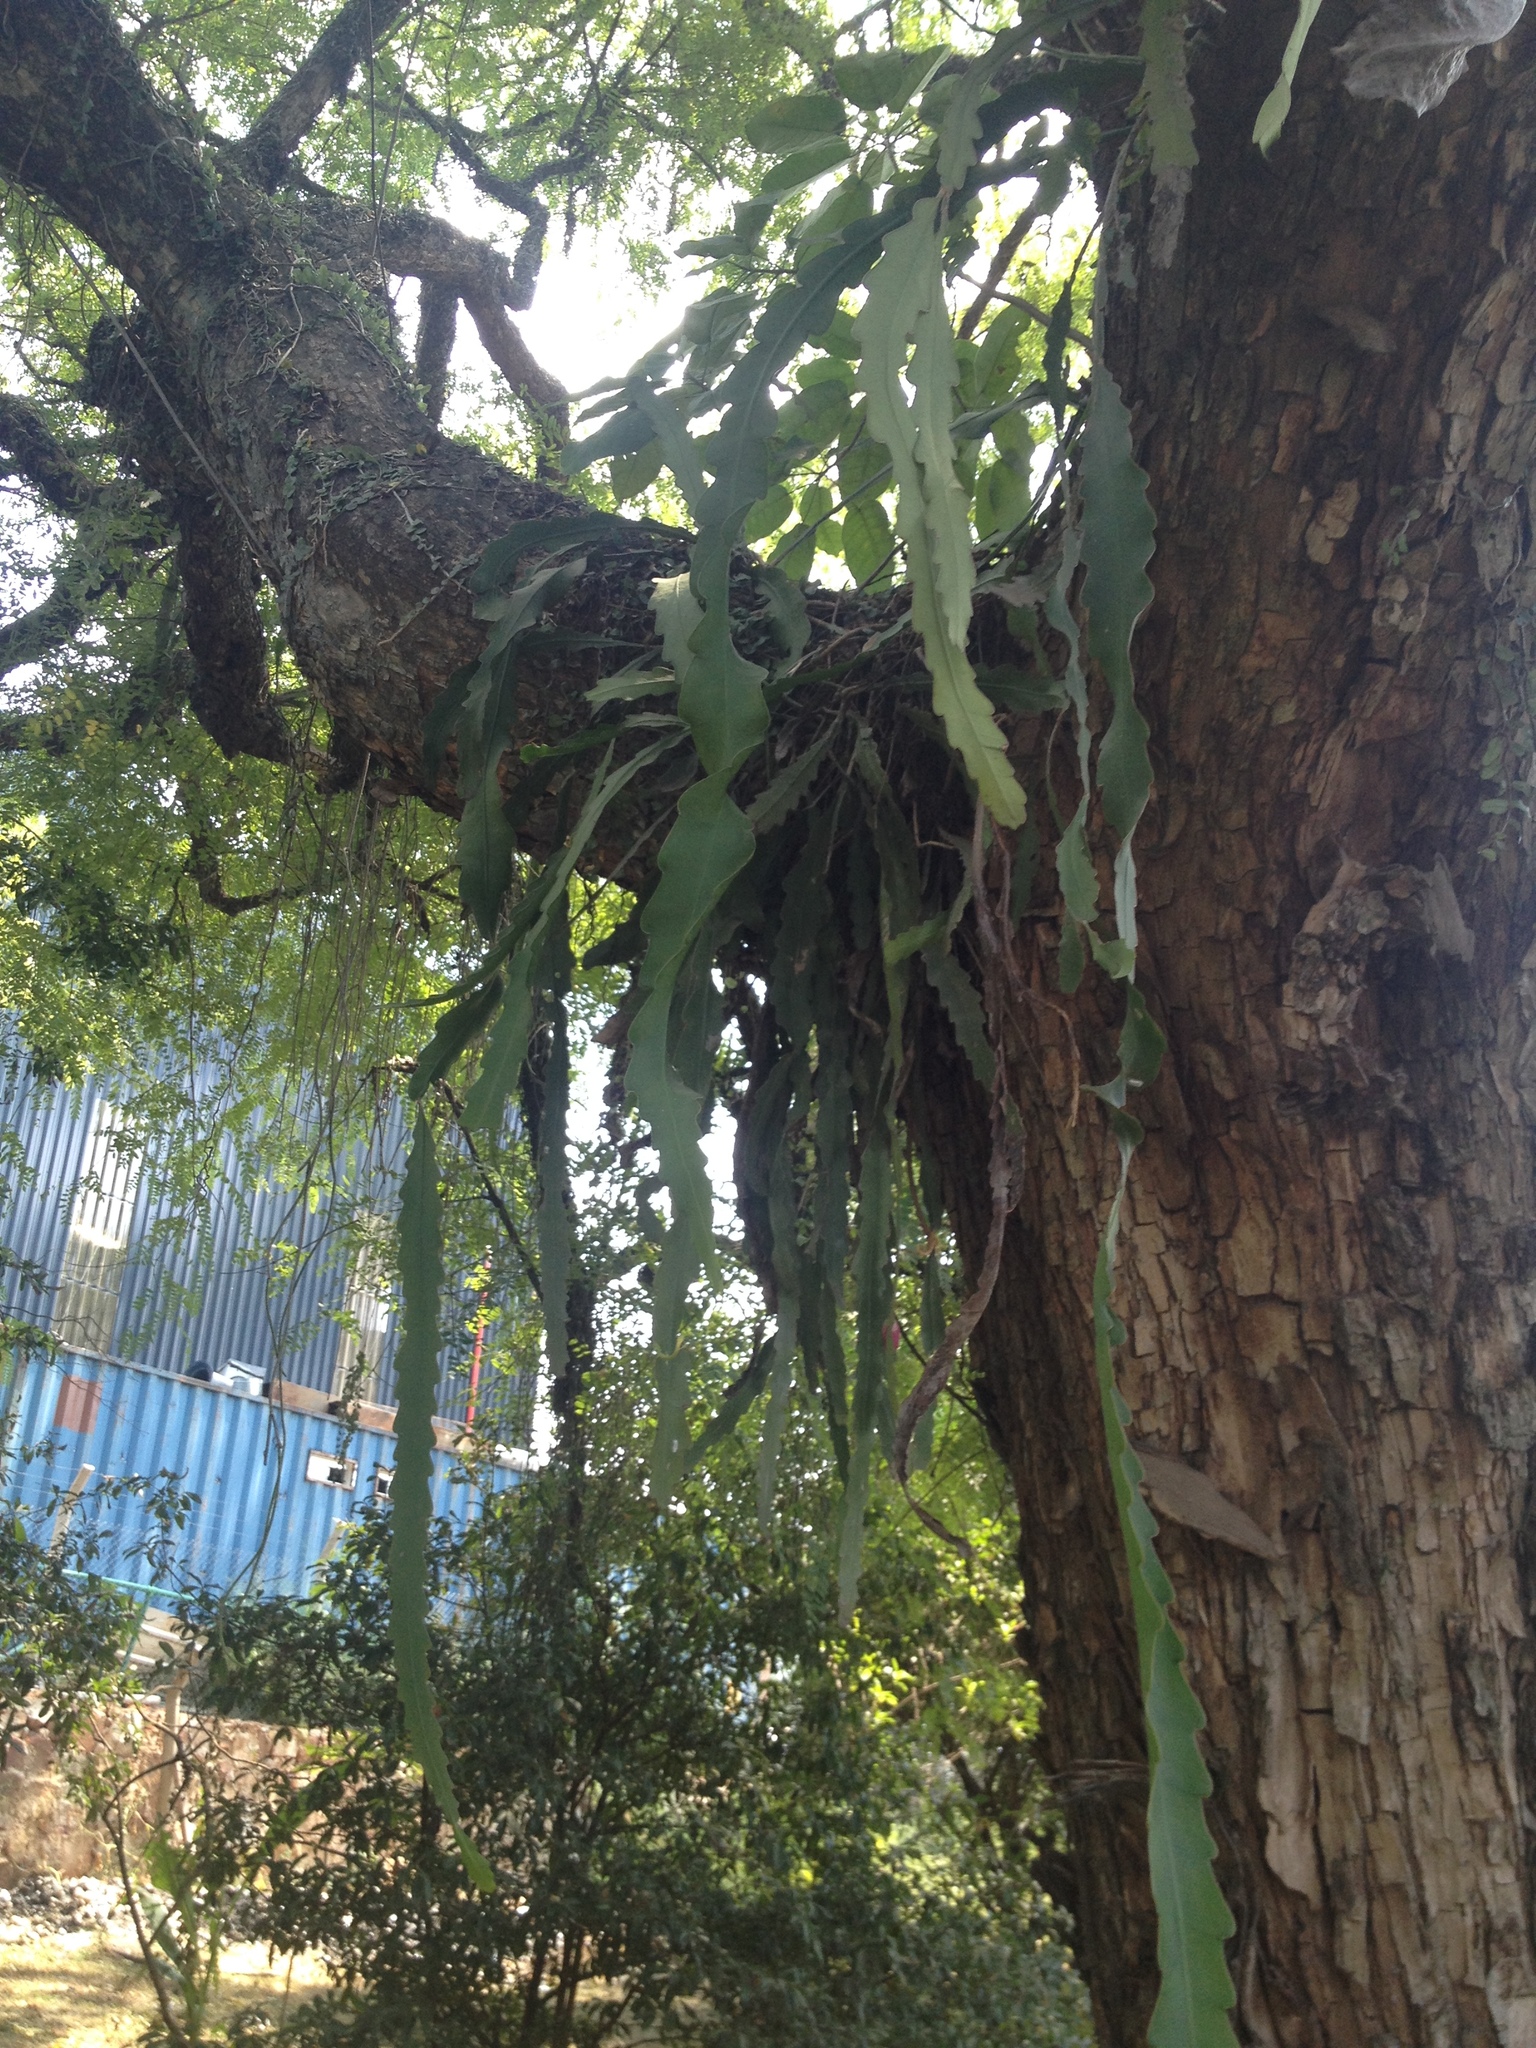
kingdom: Plantae
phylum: Tracheophyta
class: Magnoliopsida
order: Fabales
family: Fabaceae
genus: Inga
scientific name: Inga uraguensis
